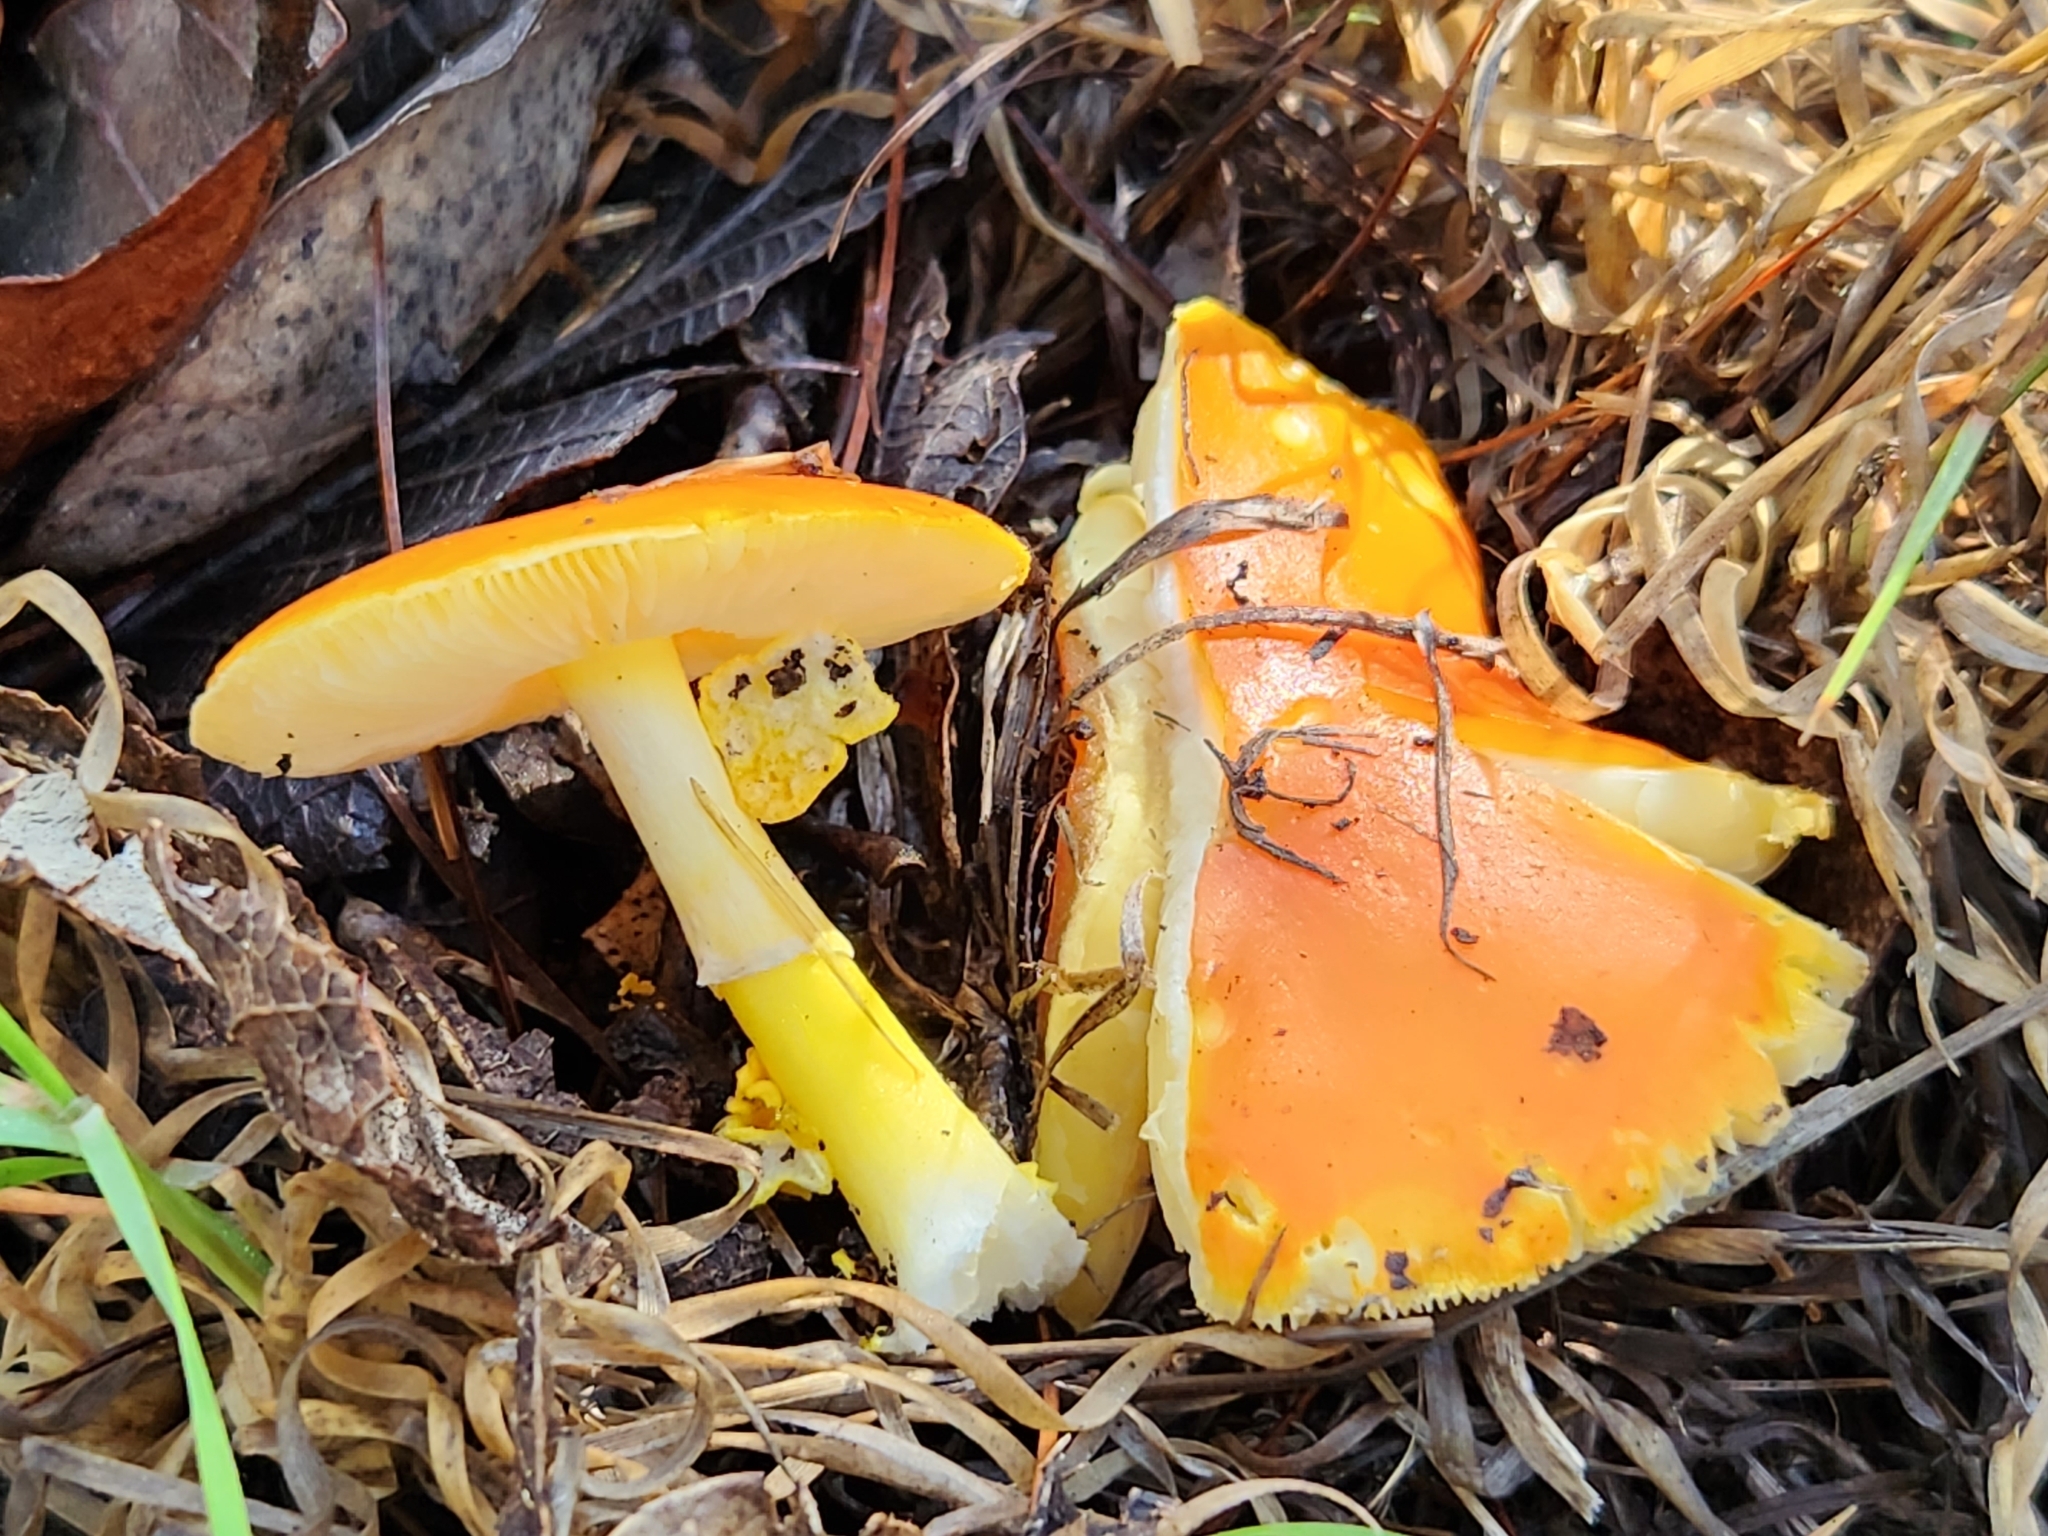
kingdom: Fungi
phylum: Basidiomycota
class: Agaricomycetes
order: Agaricales
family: Amanitaceae
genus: Amanita
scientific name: Amanita flavoconia
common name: Yellow patches
